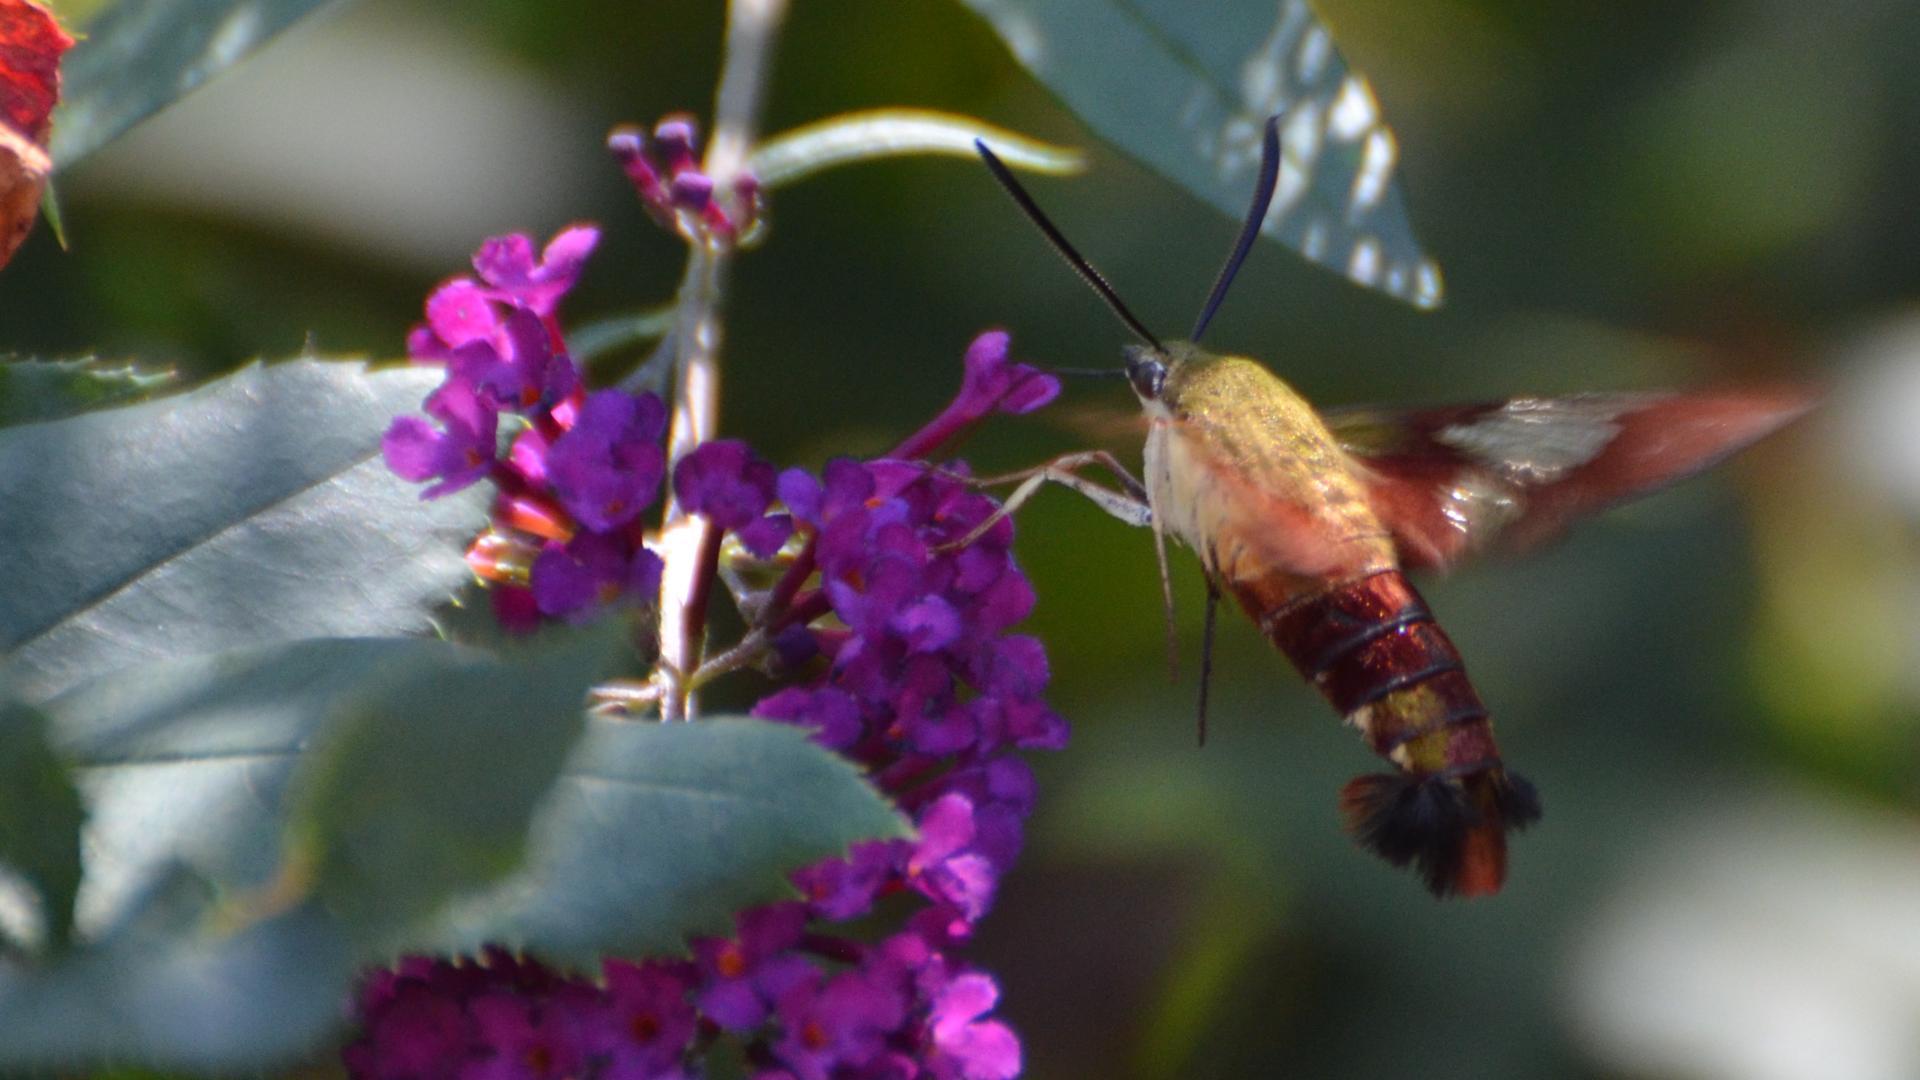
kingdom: Animalia
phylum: Arthropoda
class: Insecta
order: Lepidoptera
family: Sphingidae
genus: Hemaris
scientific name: Hemaris thysbe
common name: Common clear-wing
